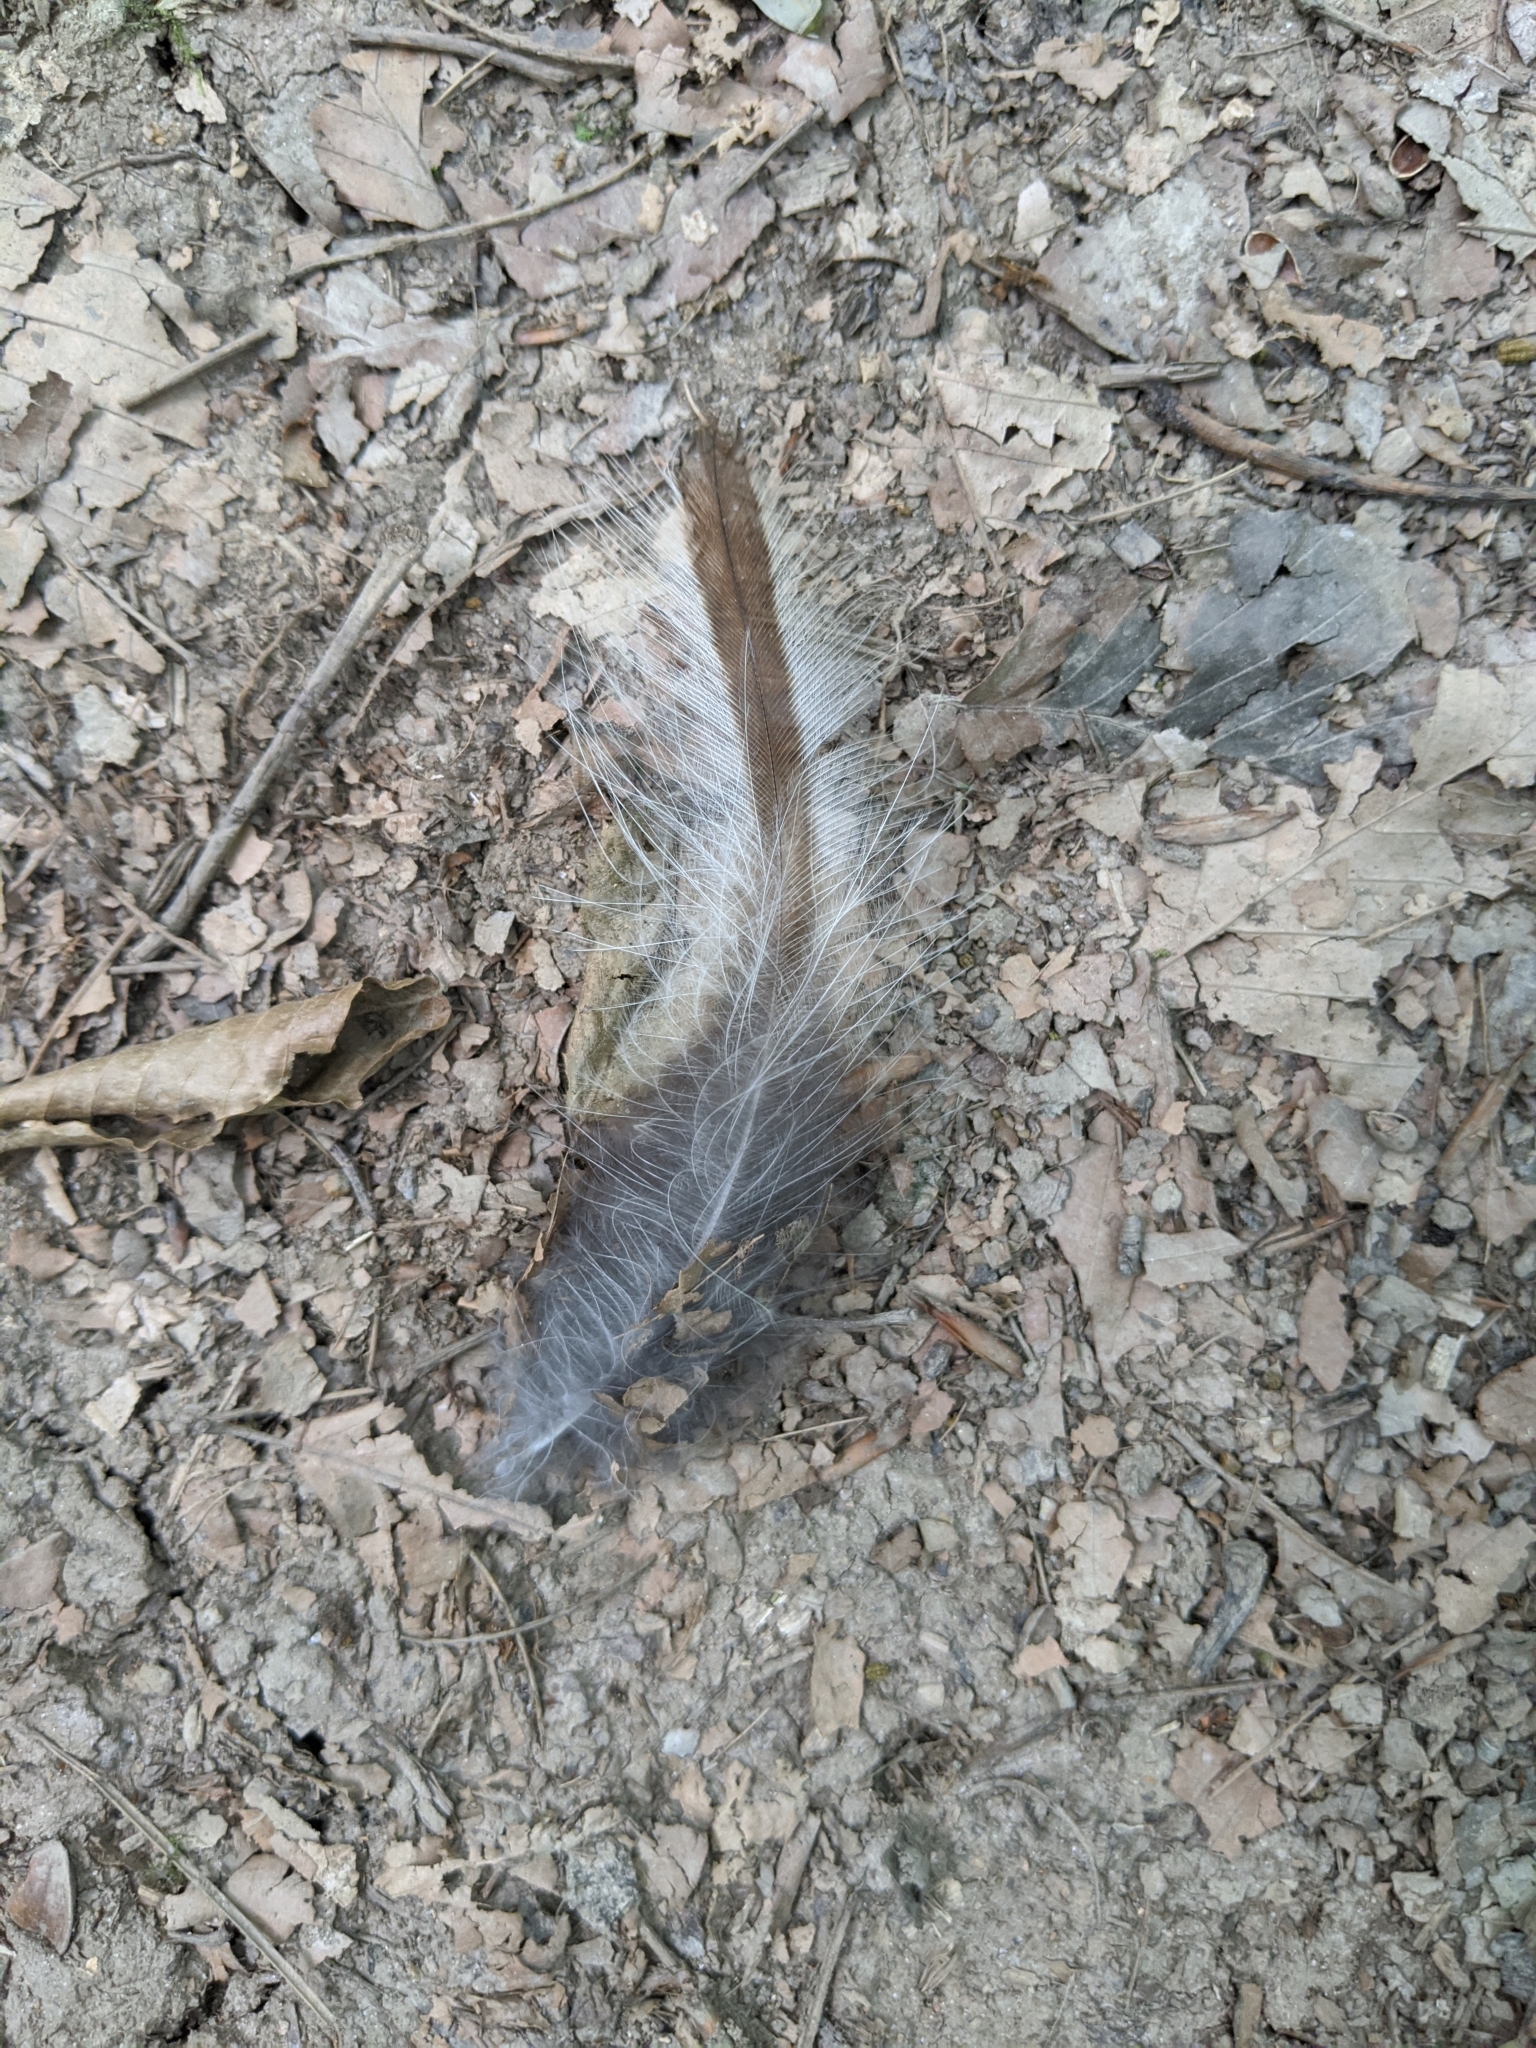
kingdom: Animalia
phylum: Chordata
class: Aves
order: Strigiformes
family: Strigidae
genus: Strix
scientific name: Strix varia
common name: Barred owl
